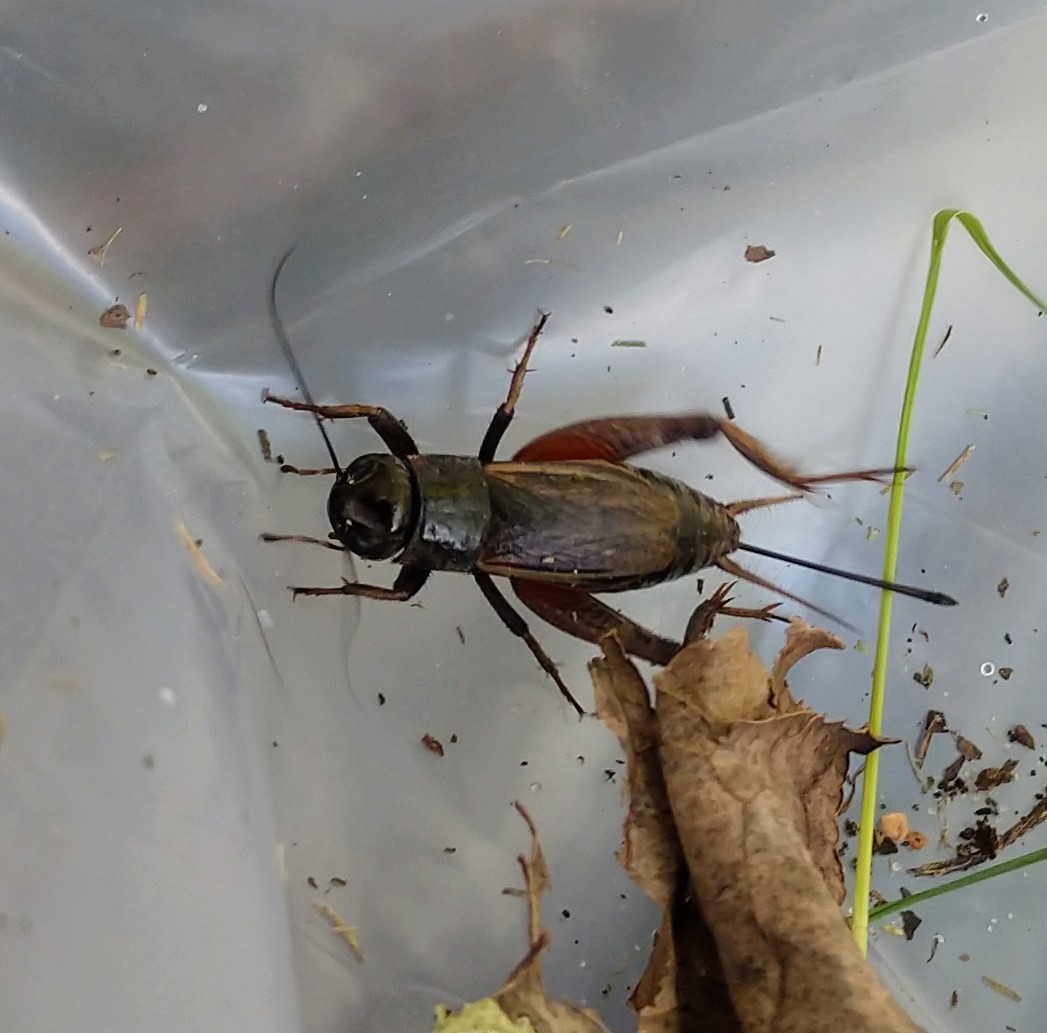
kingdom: Animalia
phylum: Arthropoda
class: Insecta
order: Orthoptera
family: Gryllidae
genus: Gryllus
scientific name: Gryllus pennsylvanicus
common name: Fall field cricket
